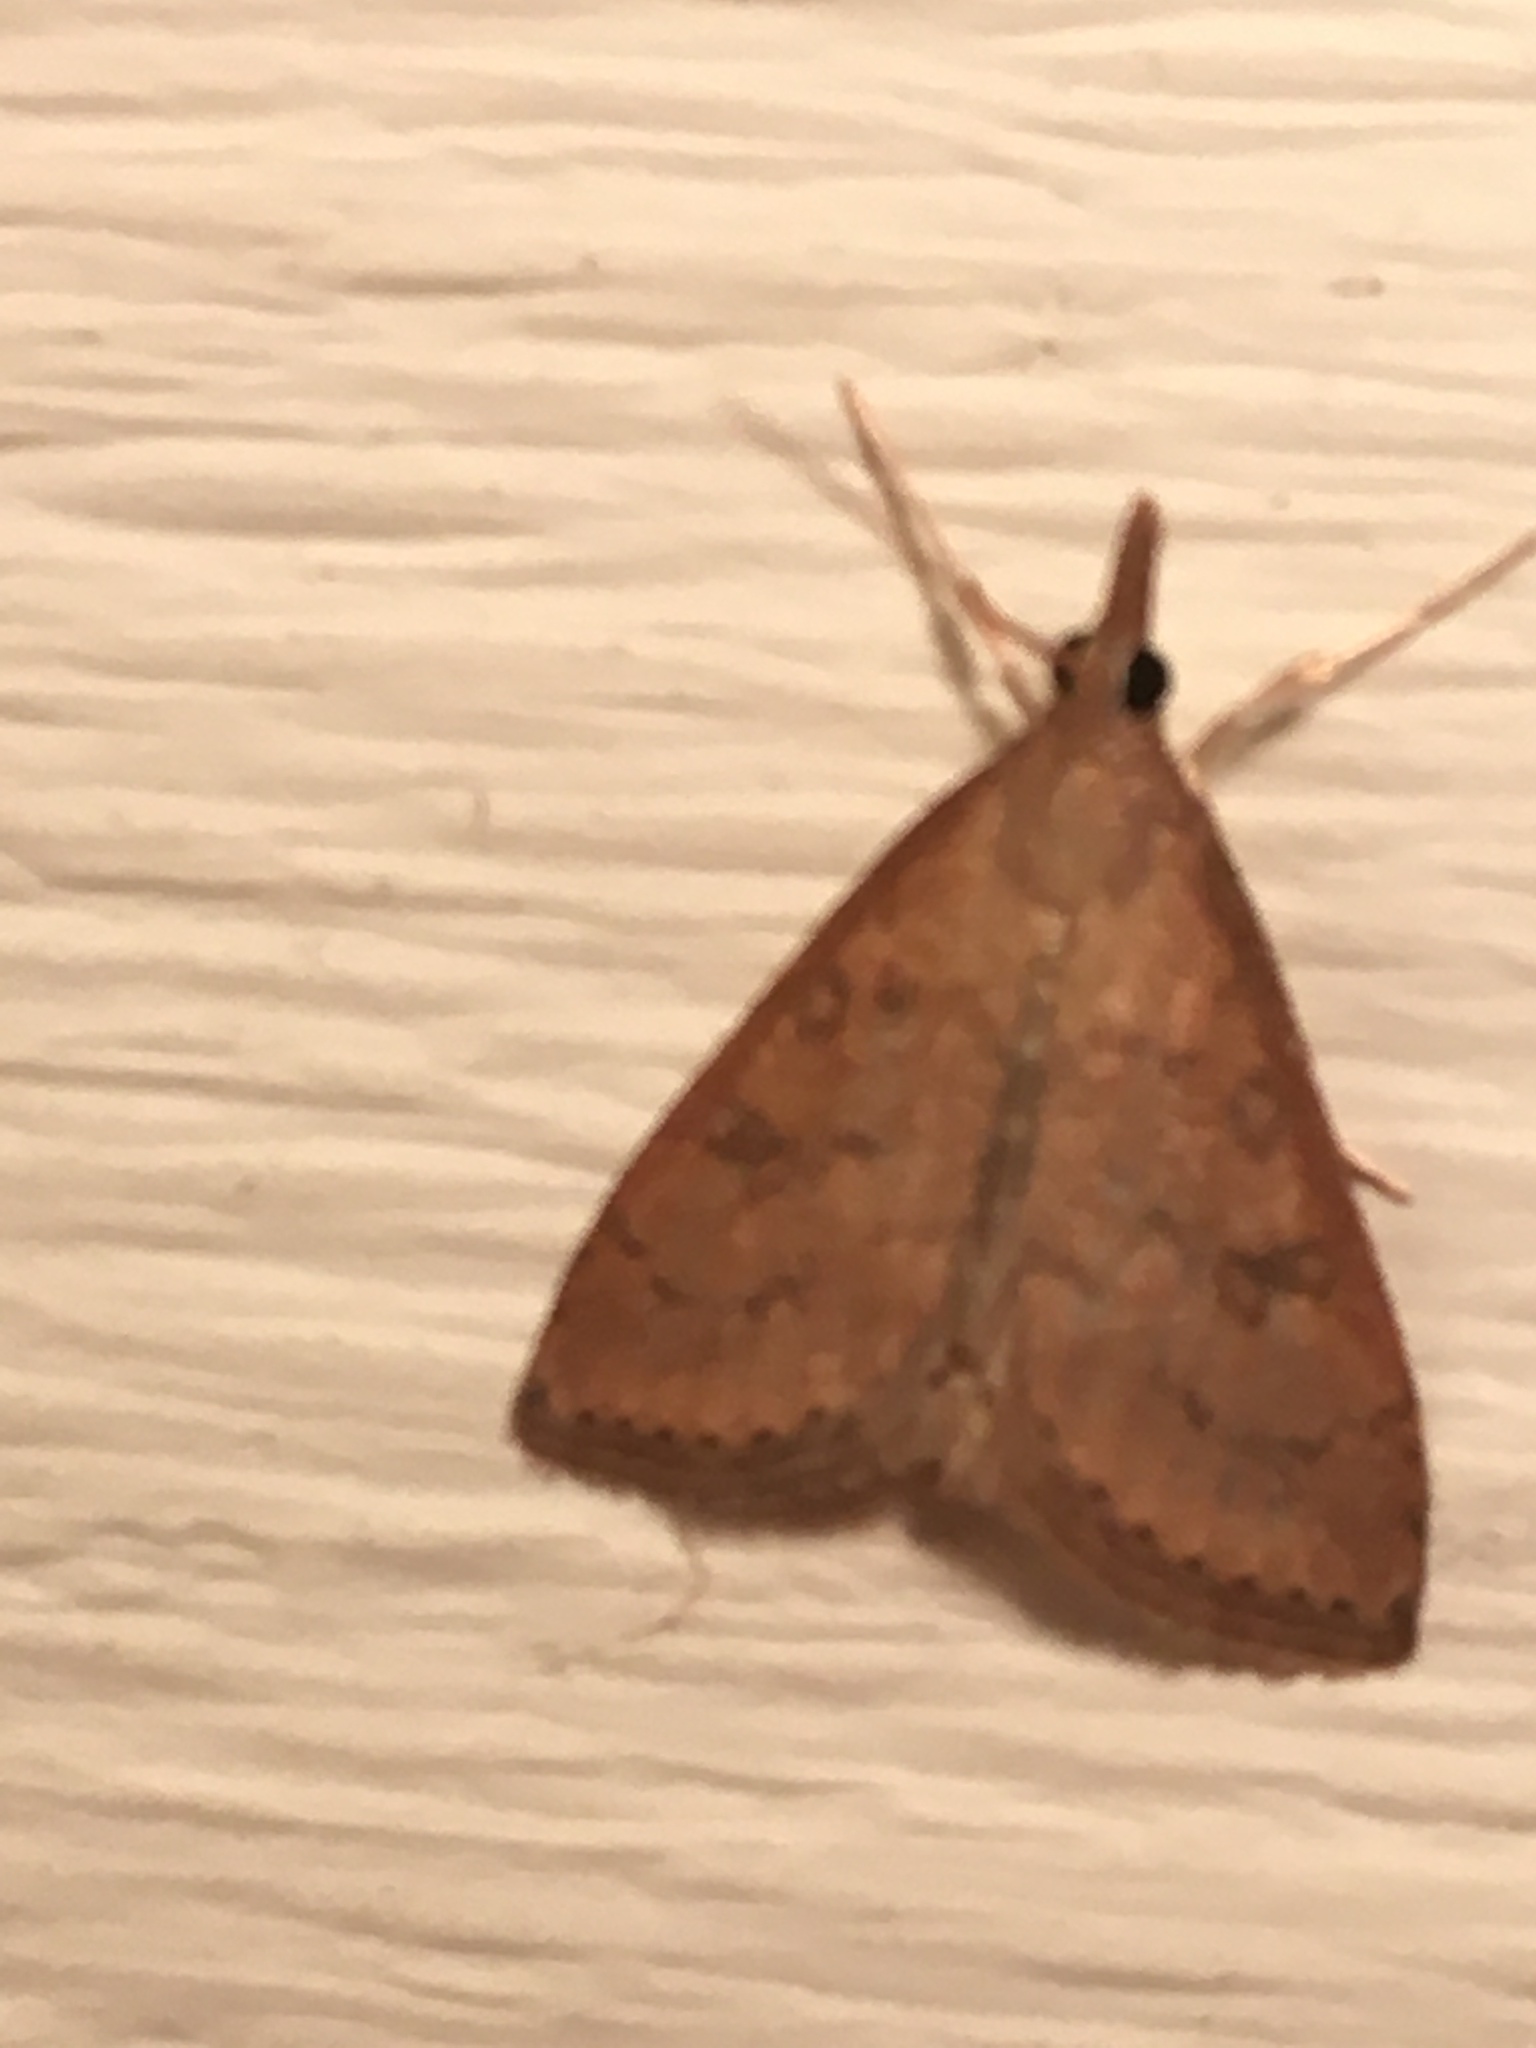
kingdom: Animalia
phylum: Arthropoda
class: Insecta
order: Lepidoptera
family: Crambidae
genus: Udea
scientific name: Udea rubigalis
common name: Celery leaftier moth
